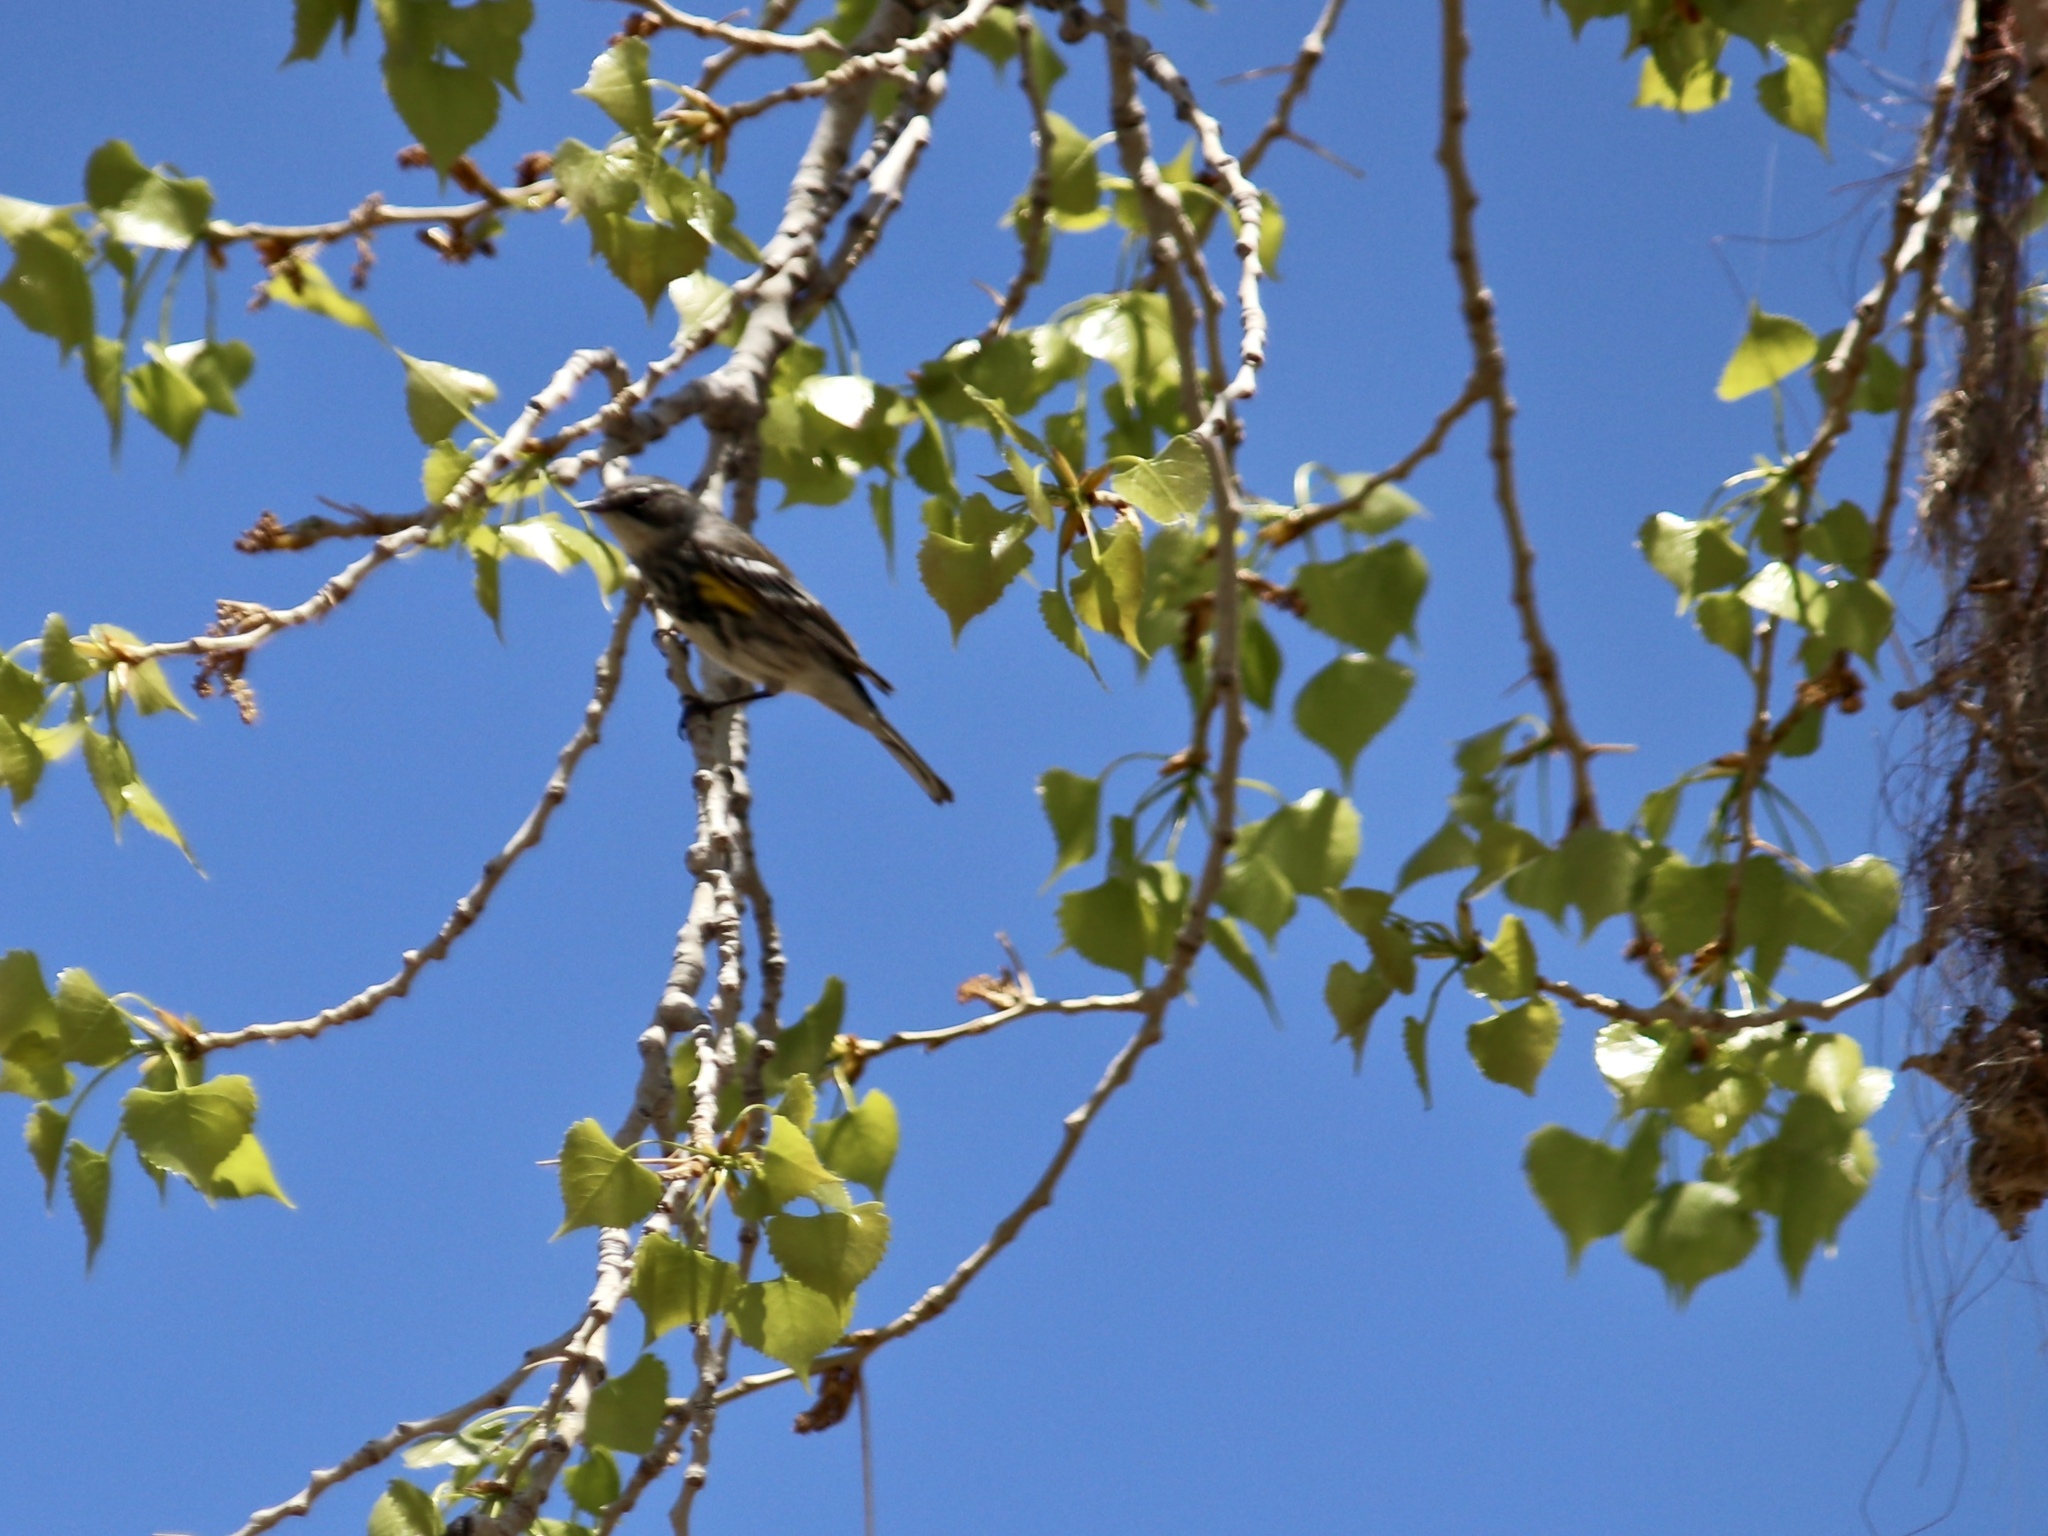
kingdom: Animalia
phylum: Chordata
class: Aves
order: Passeriformes
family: Parulidae
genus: Setophaga
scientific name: Setophaga coronata
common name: Myrtle warbler
